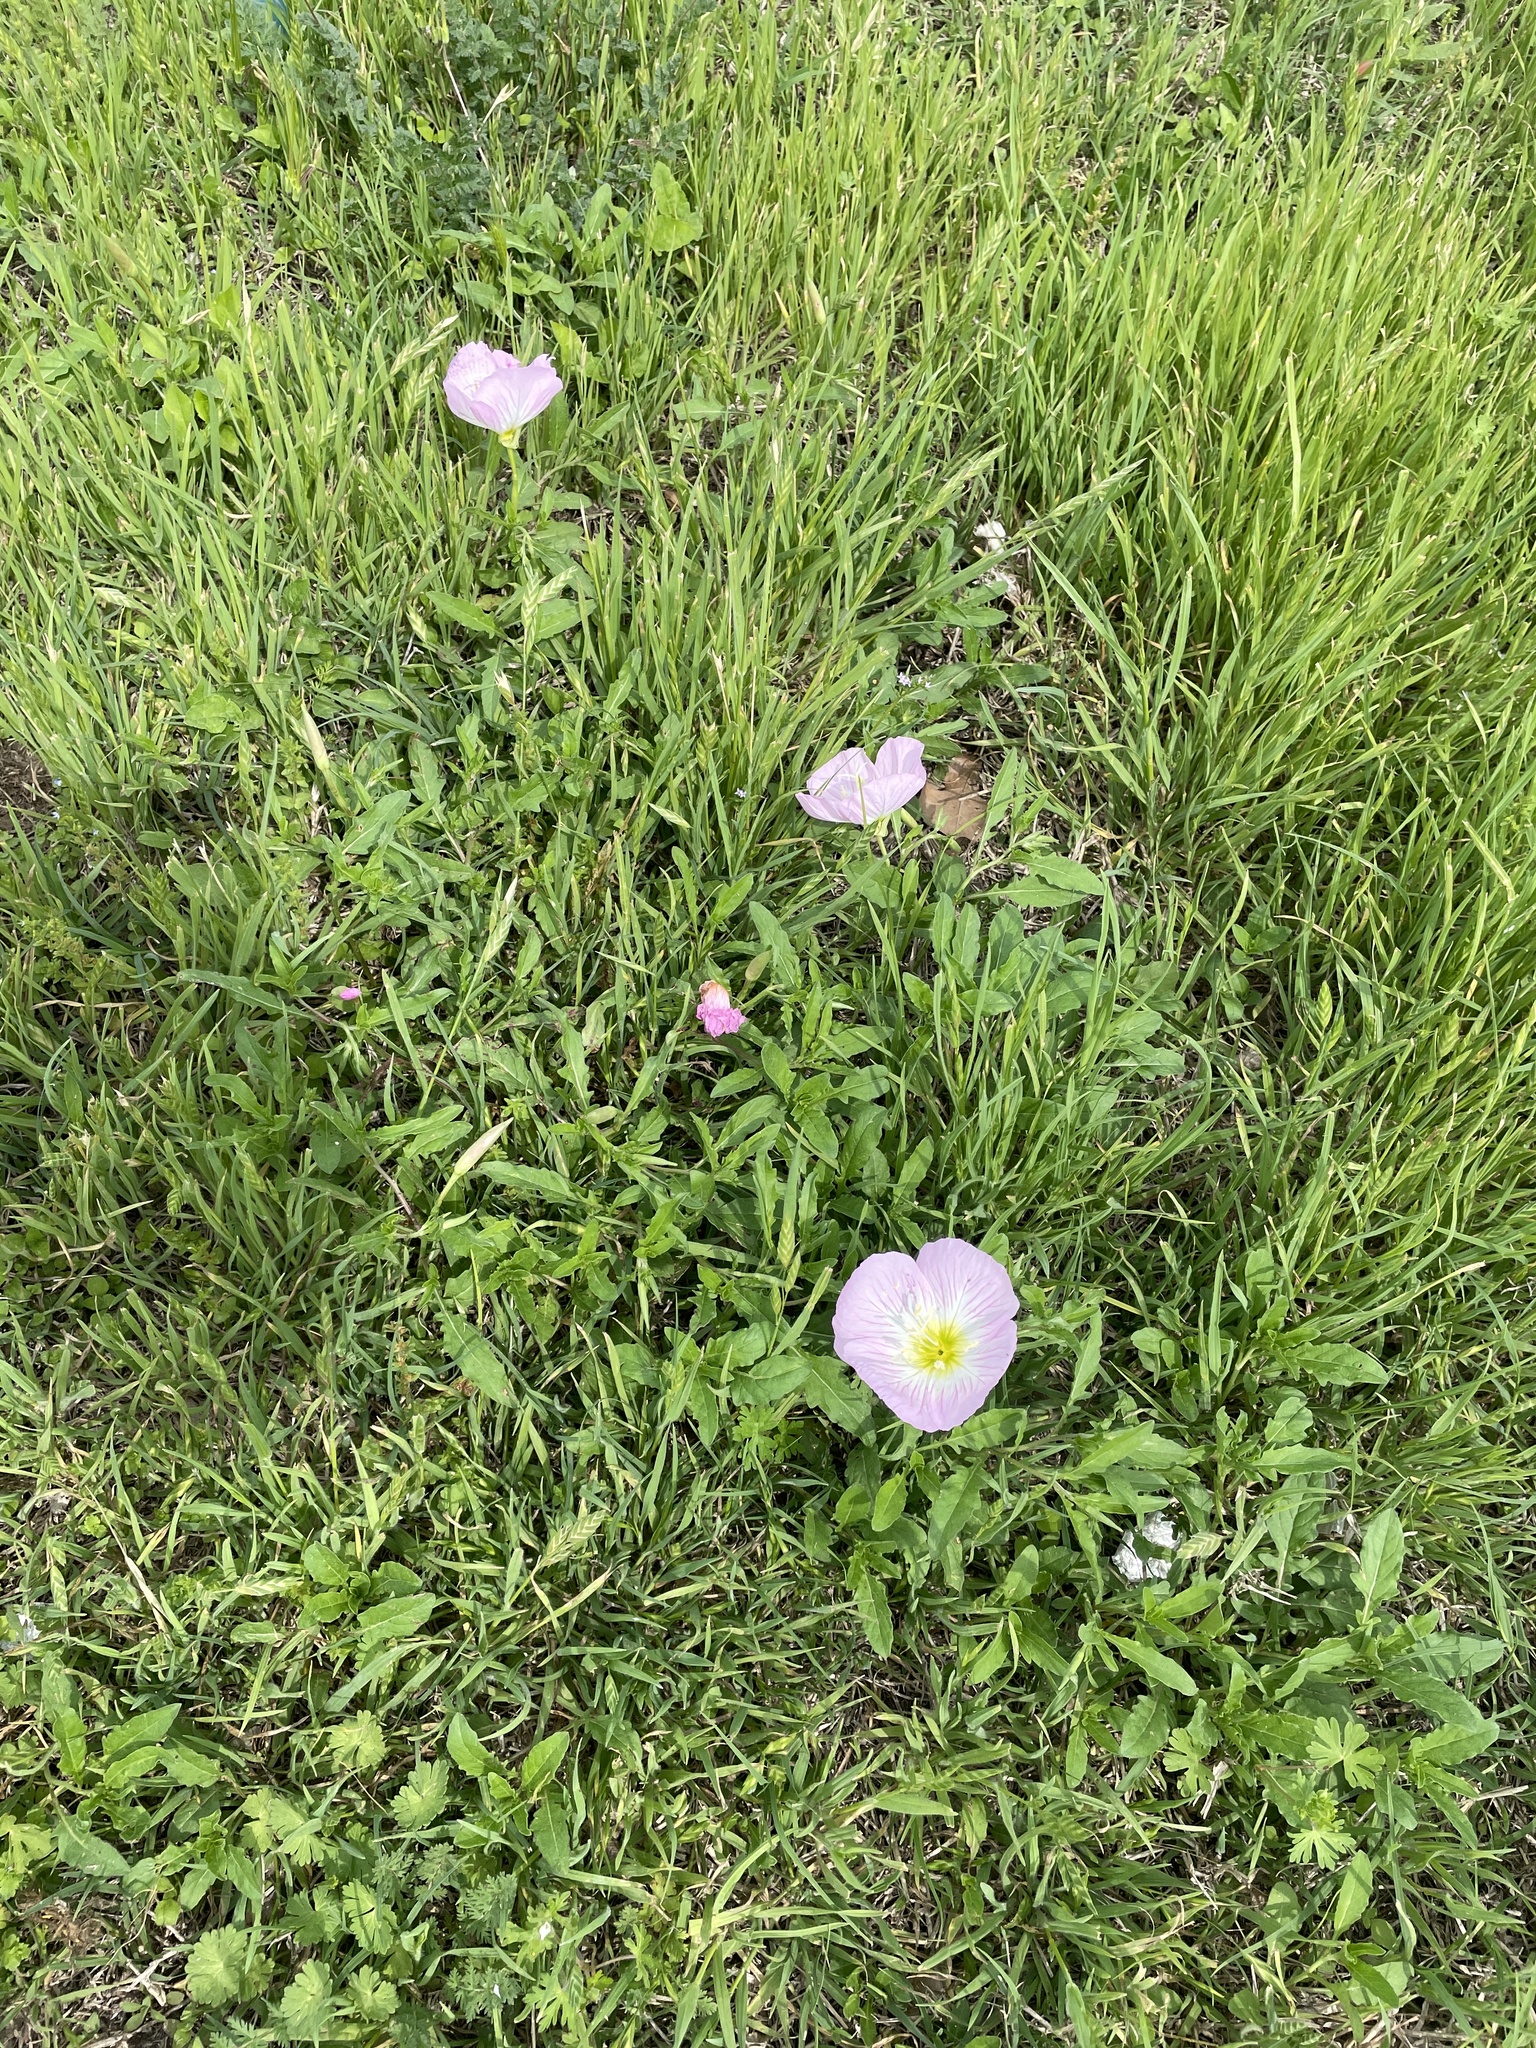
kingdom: Plantae
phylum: Tracheophyta
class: Magnoliopsida
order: Myrtales
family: Onagraceae
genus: Oenothera
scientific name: Oenothera speciosa
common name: White evening-primrose
